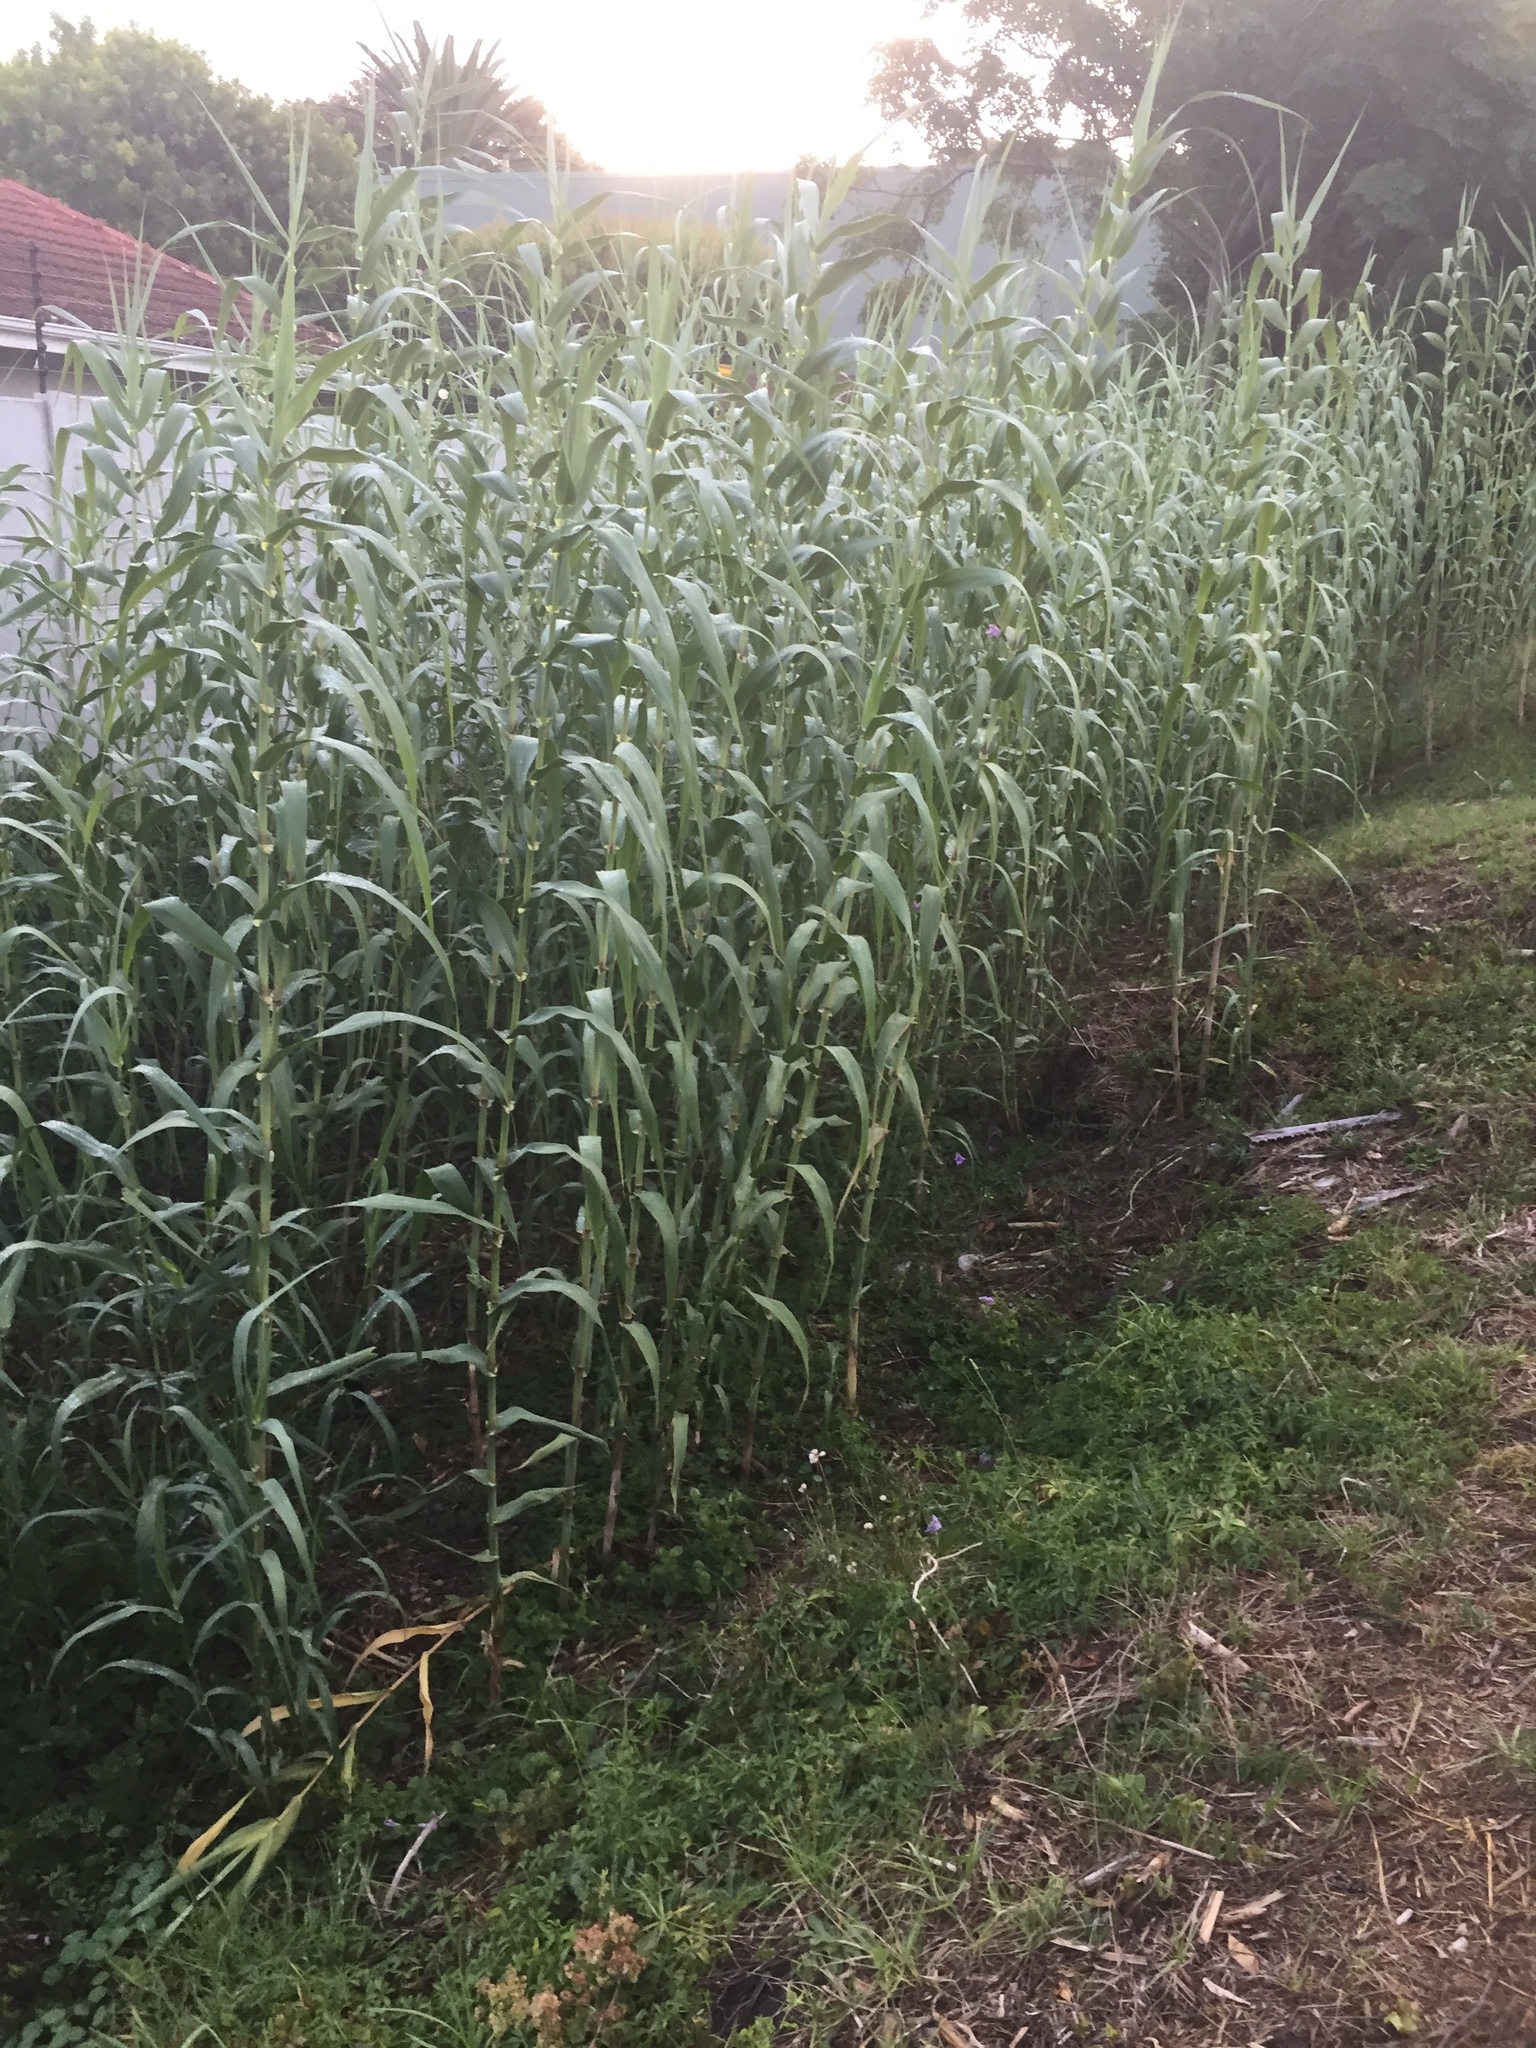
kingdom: Plantae
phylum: Tracheophyta
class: Liliopsida
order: Poales
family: Poaceae
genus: Arundo
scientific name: Arundo donax
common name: Giant reed
